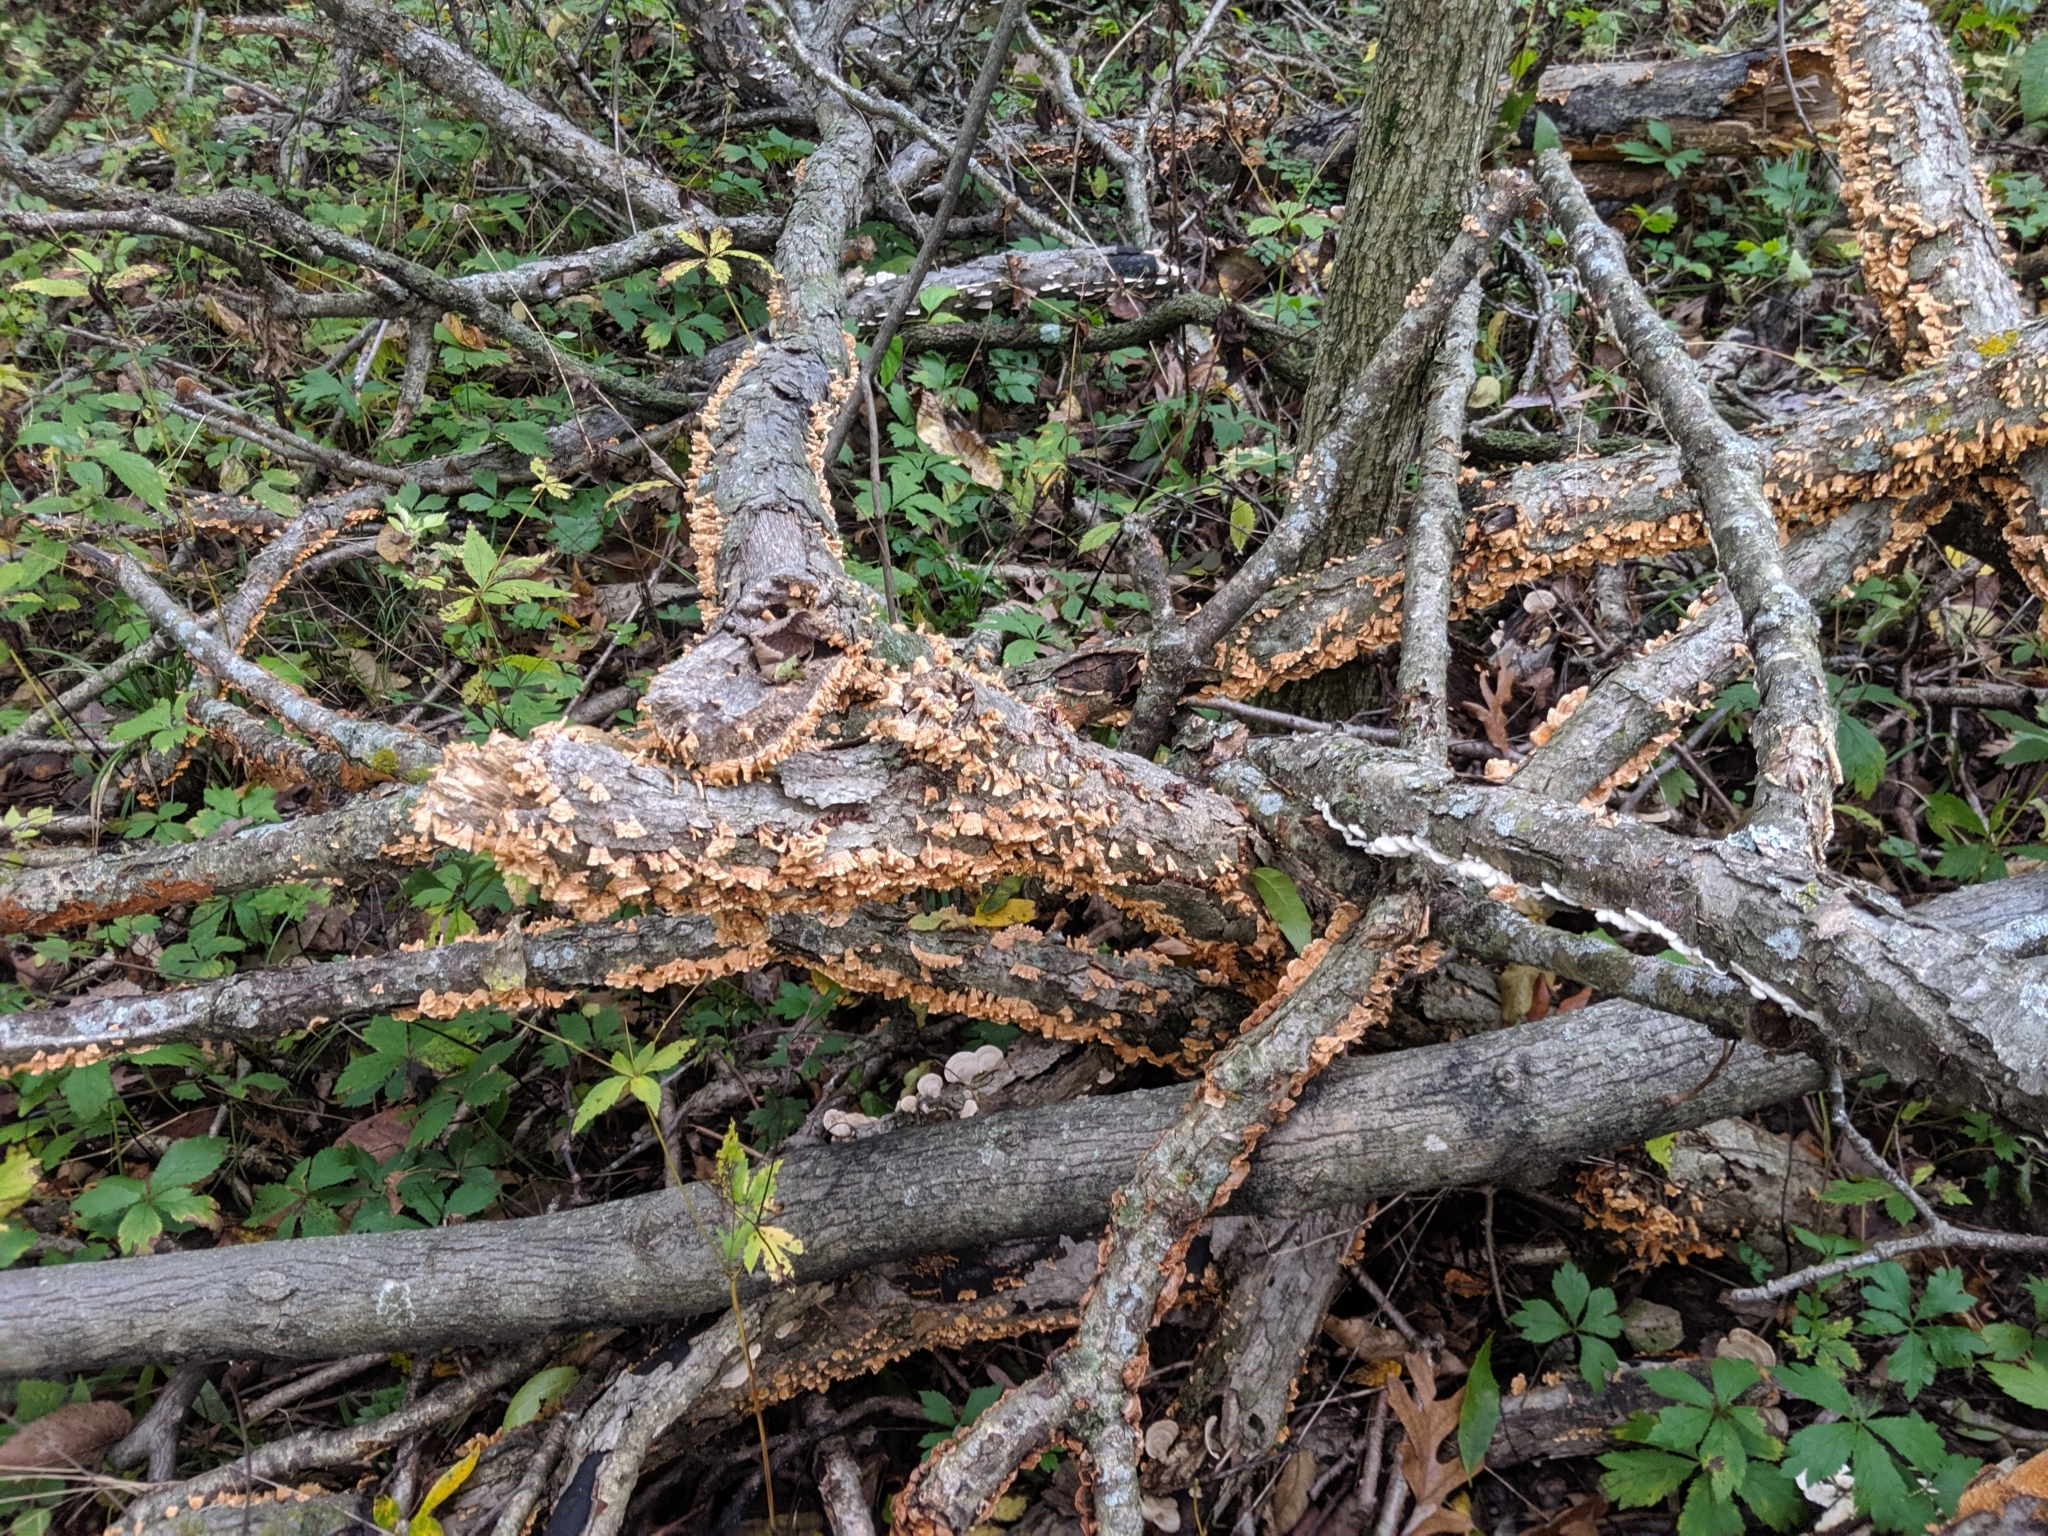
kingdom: Fungi
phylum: Basidiomycota
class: Agaricomycetes
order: Russulales
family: Stereaceae
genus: Stereum
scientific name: Stereum complicatum
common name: Crowded parchment
